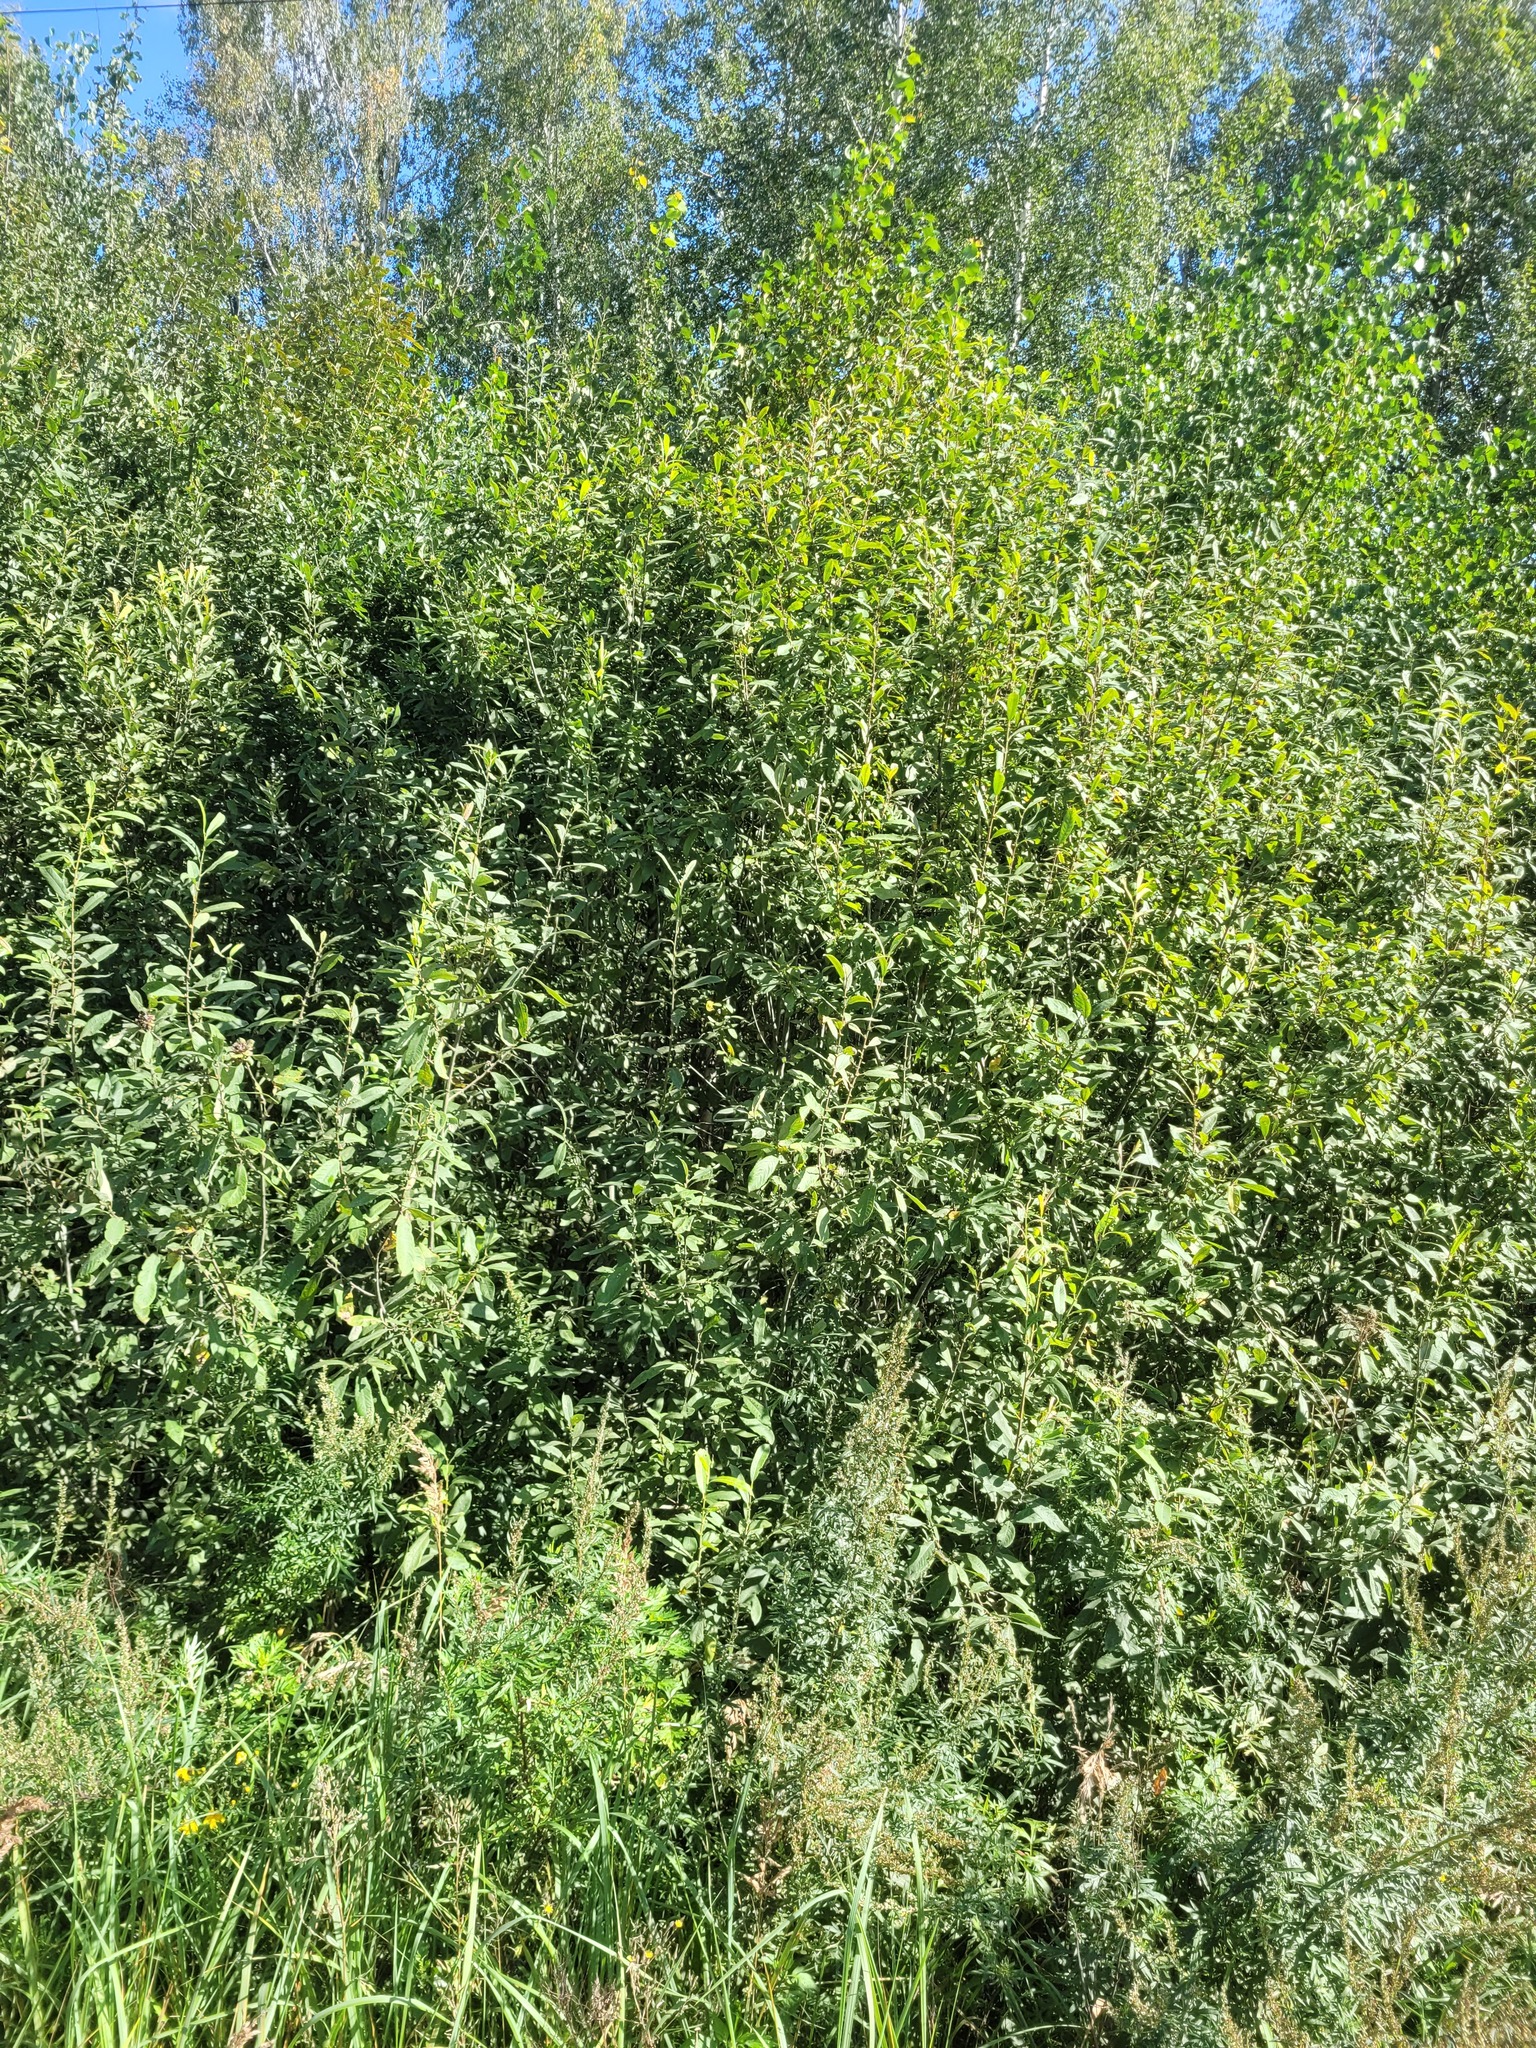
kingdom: Plantae
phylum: Tracheophyta
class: Magnoliopsida
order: Malpighiales
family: Salicaceae
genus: Salix
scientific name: Salix cinerea
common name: Common sallow
